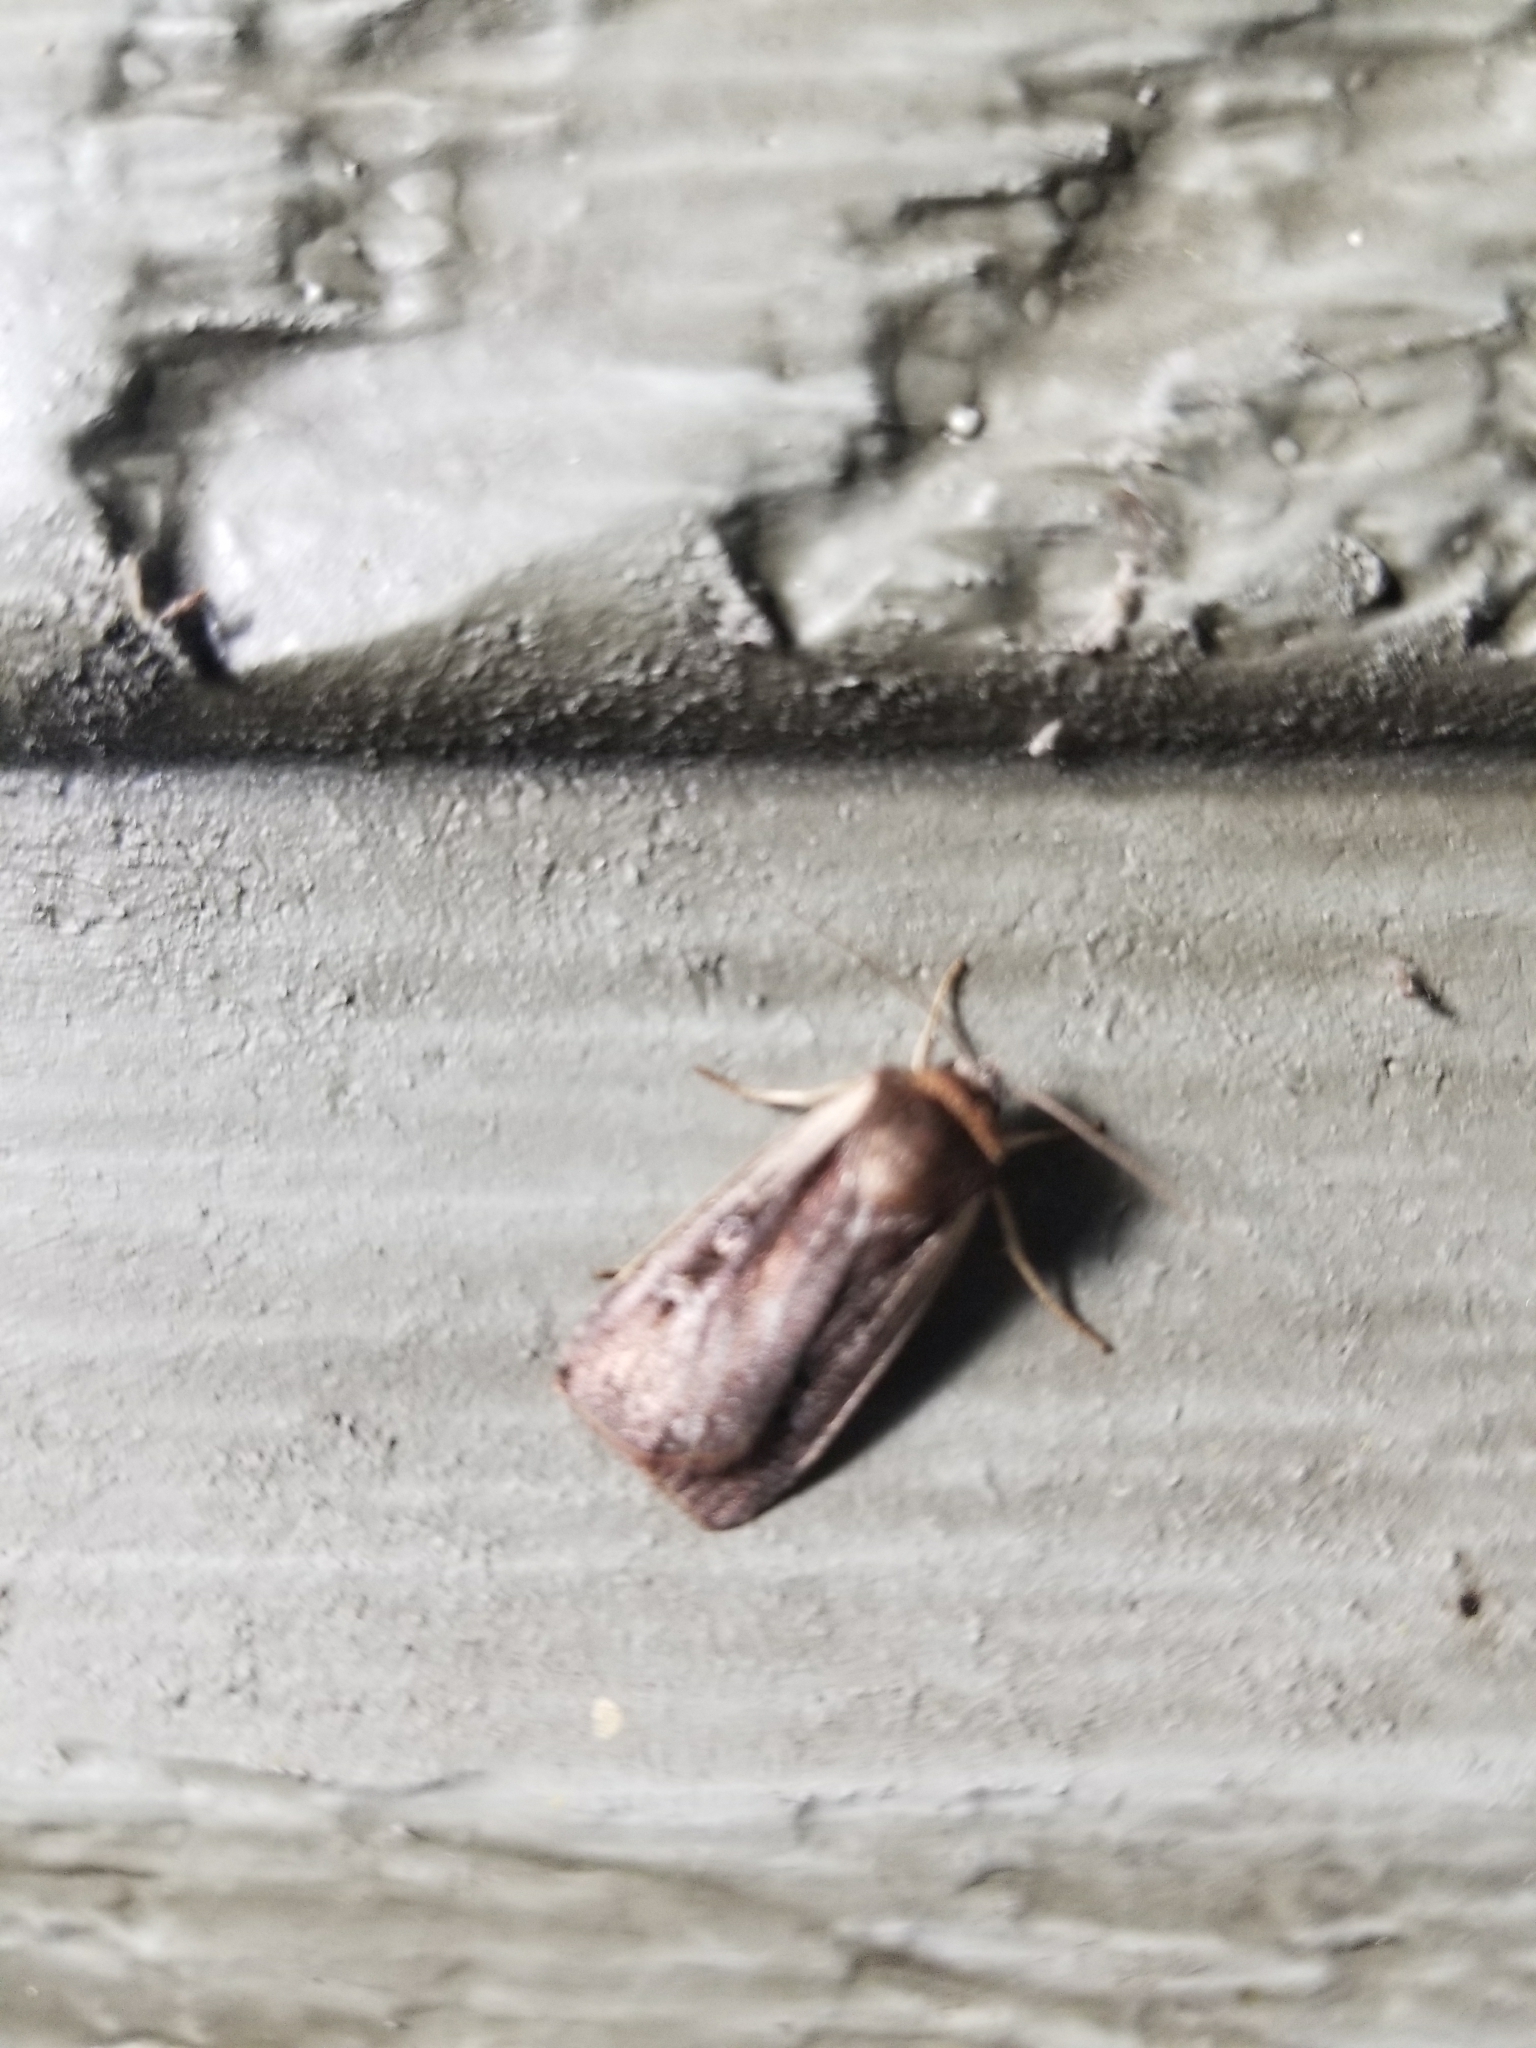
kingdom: Animalia
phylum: Arthropoda
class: Insecta
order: Lepidoptera
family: Noctuidae
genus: Ochropleura
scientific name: Ochropleura implecta
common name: Flame-shouldered dart
